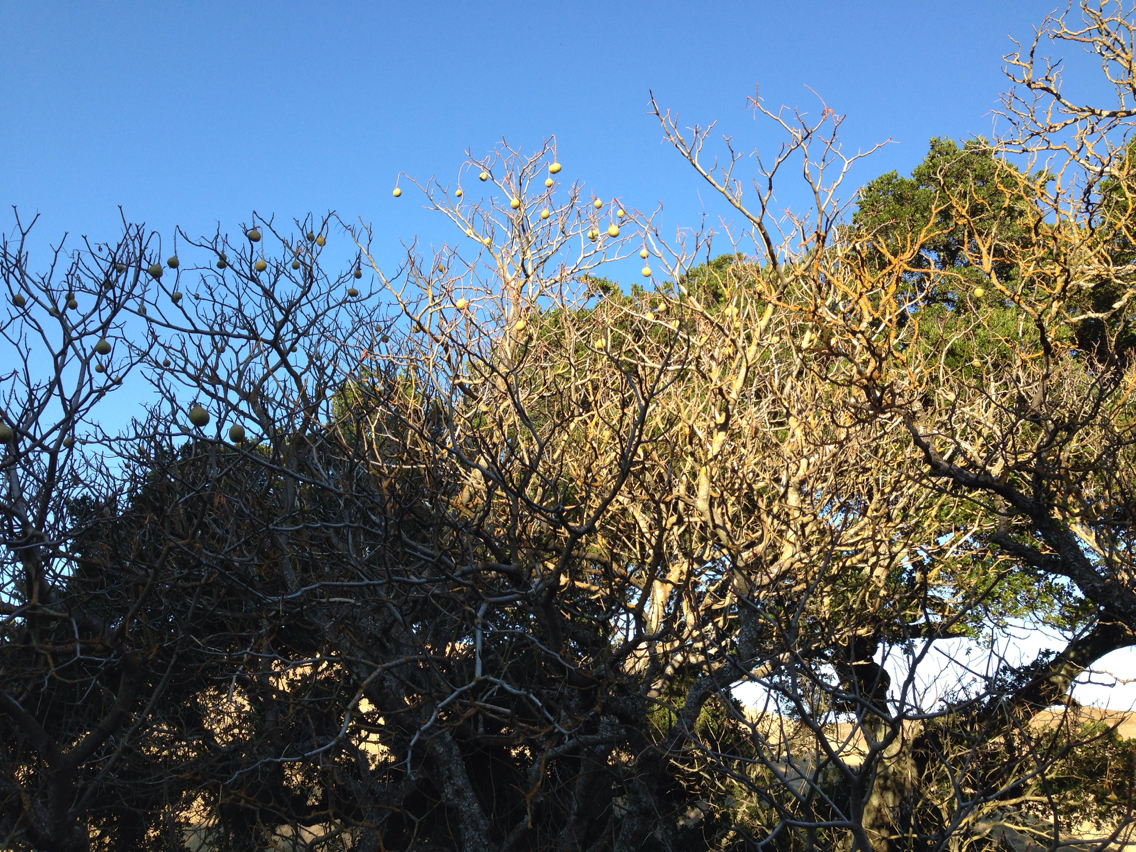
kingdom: Plantae
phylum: Tracheophyta
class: Magnoliopsida
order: Sapindales
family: Sapindaceae
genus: Aesculus
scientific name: Aesculus californica
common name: California buckeye
